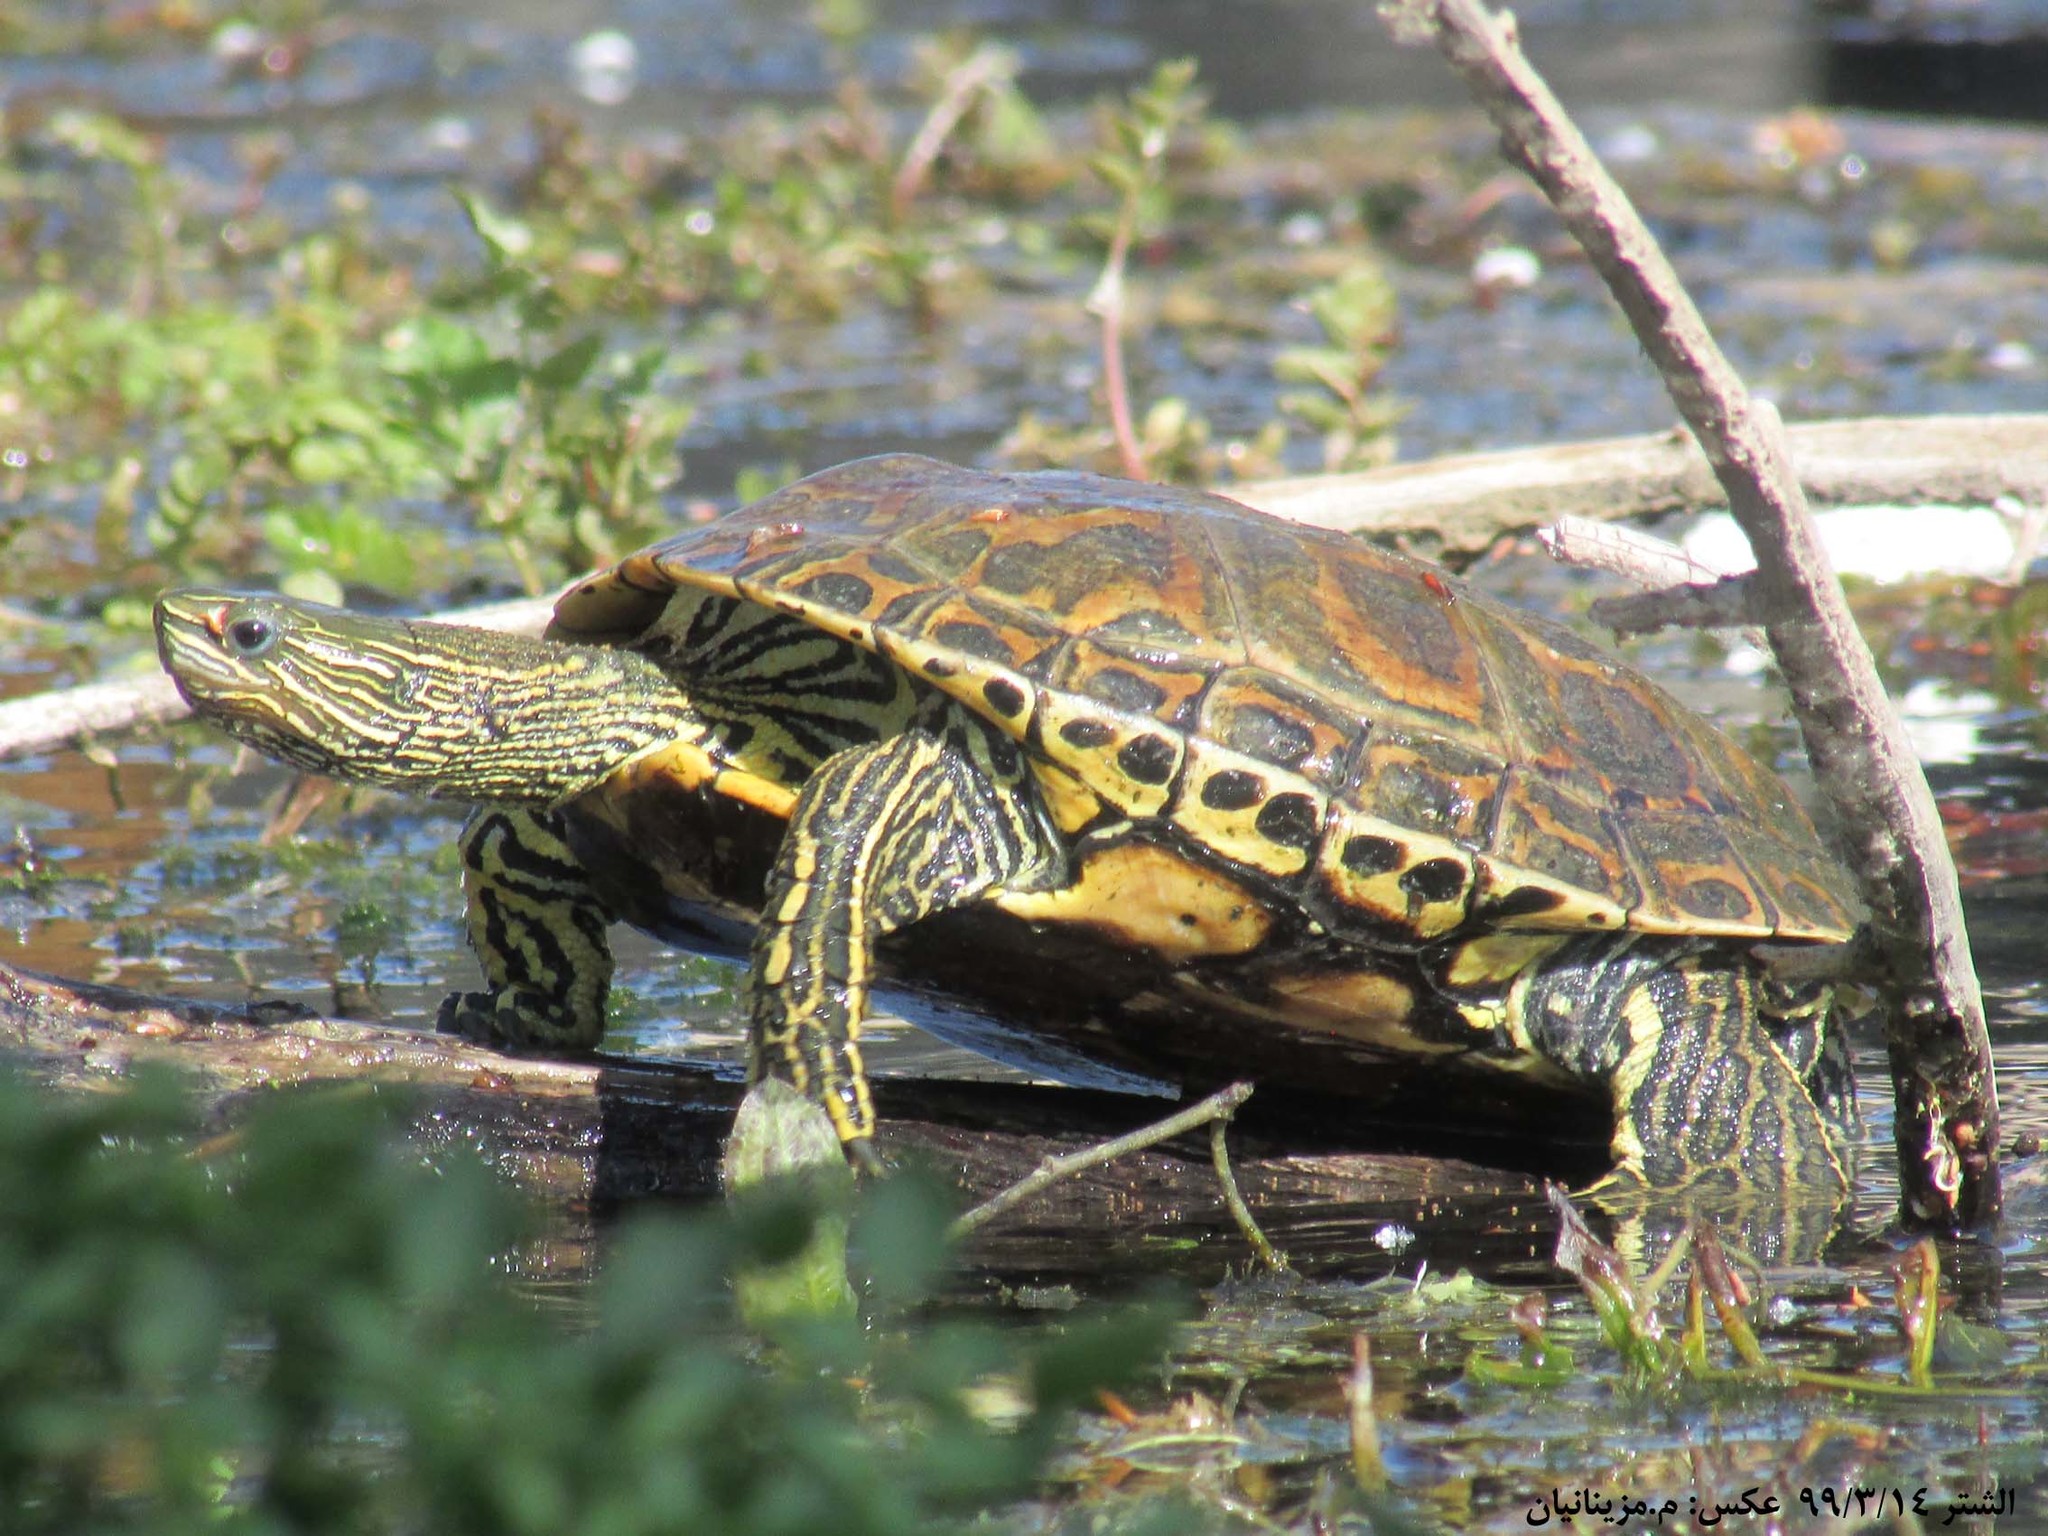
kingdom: Animalia
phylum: Chordata
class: Testudines
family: Geoemydidae
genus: Mauremys
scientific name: Mauremys caspica
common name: Caspian turtle
